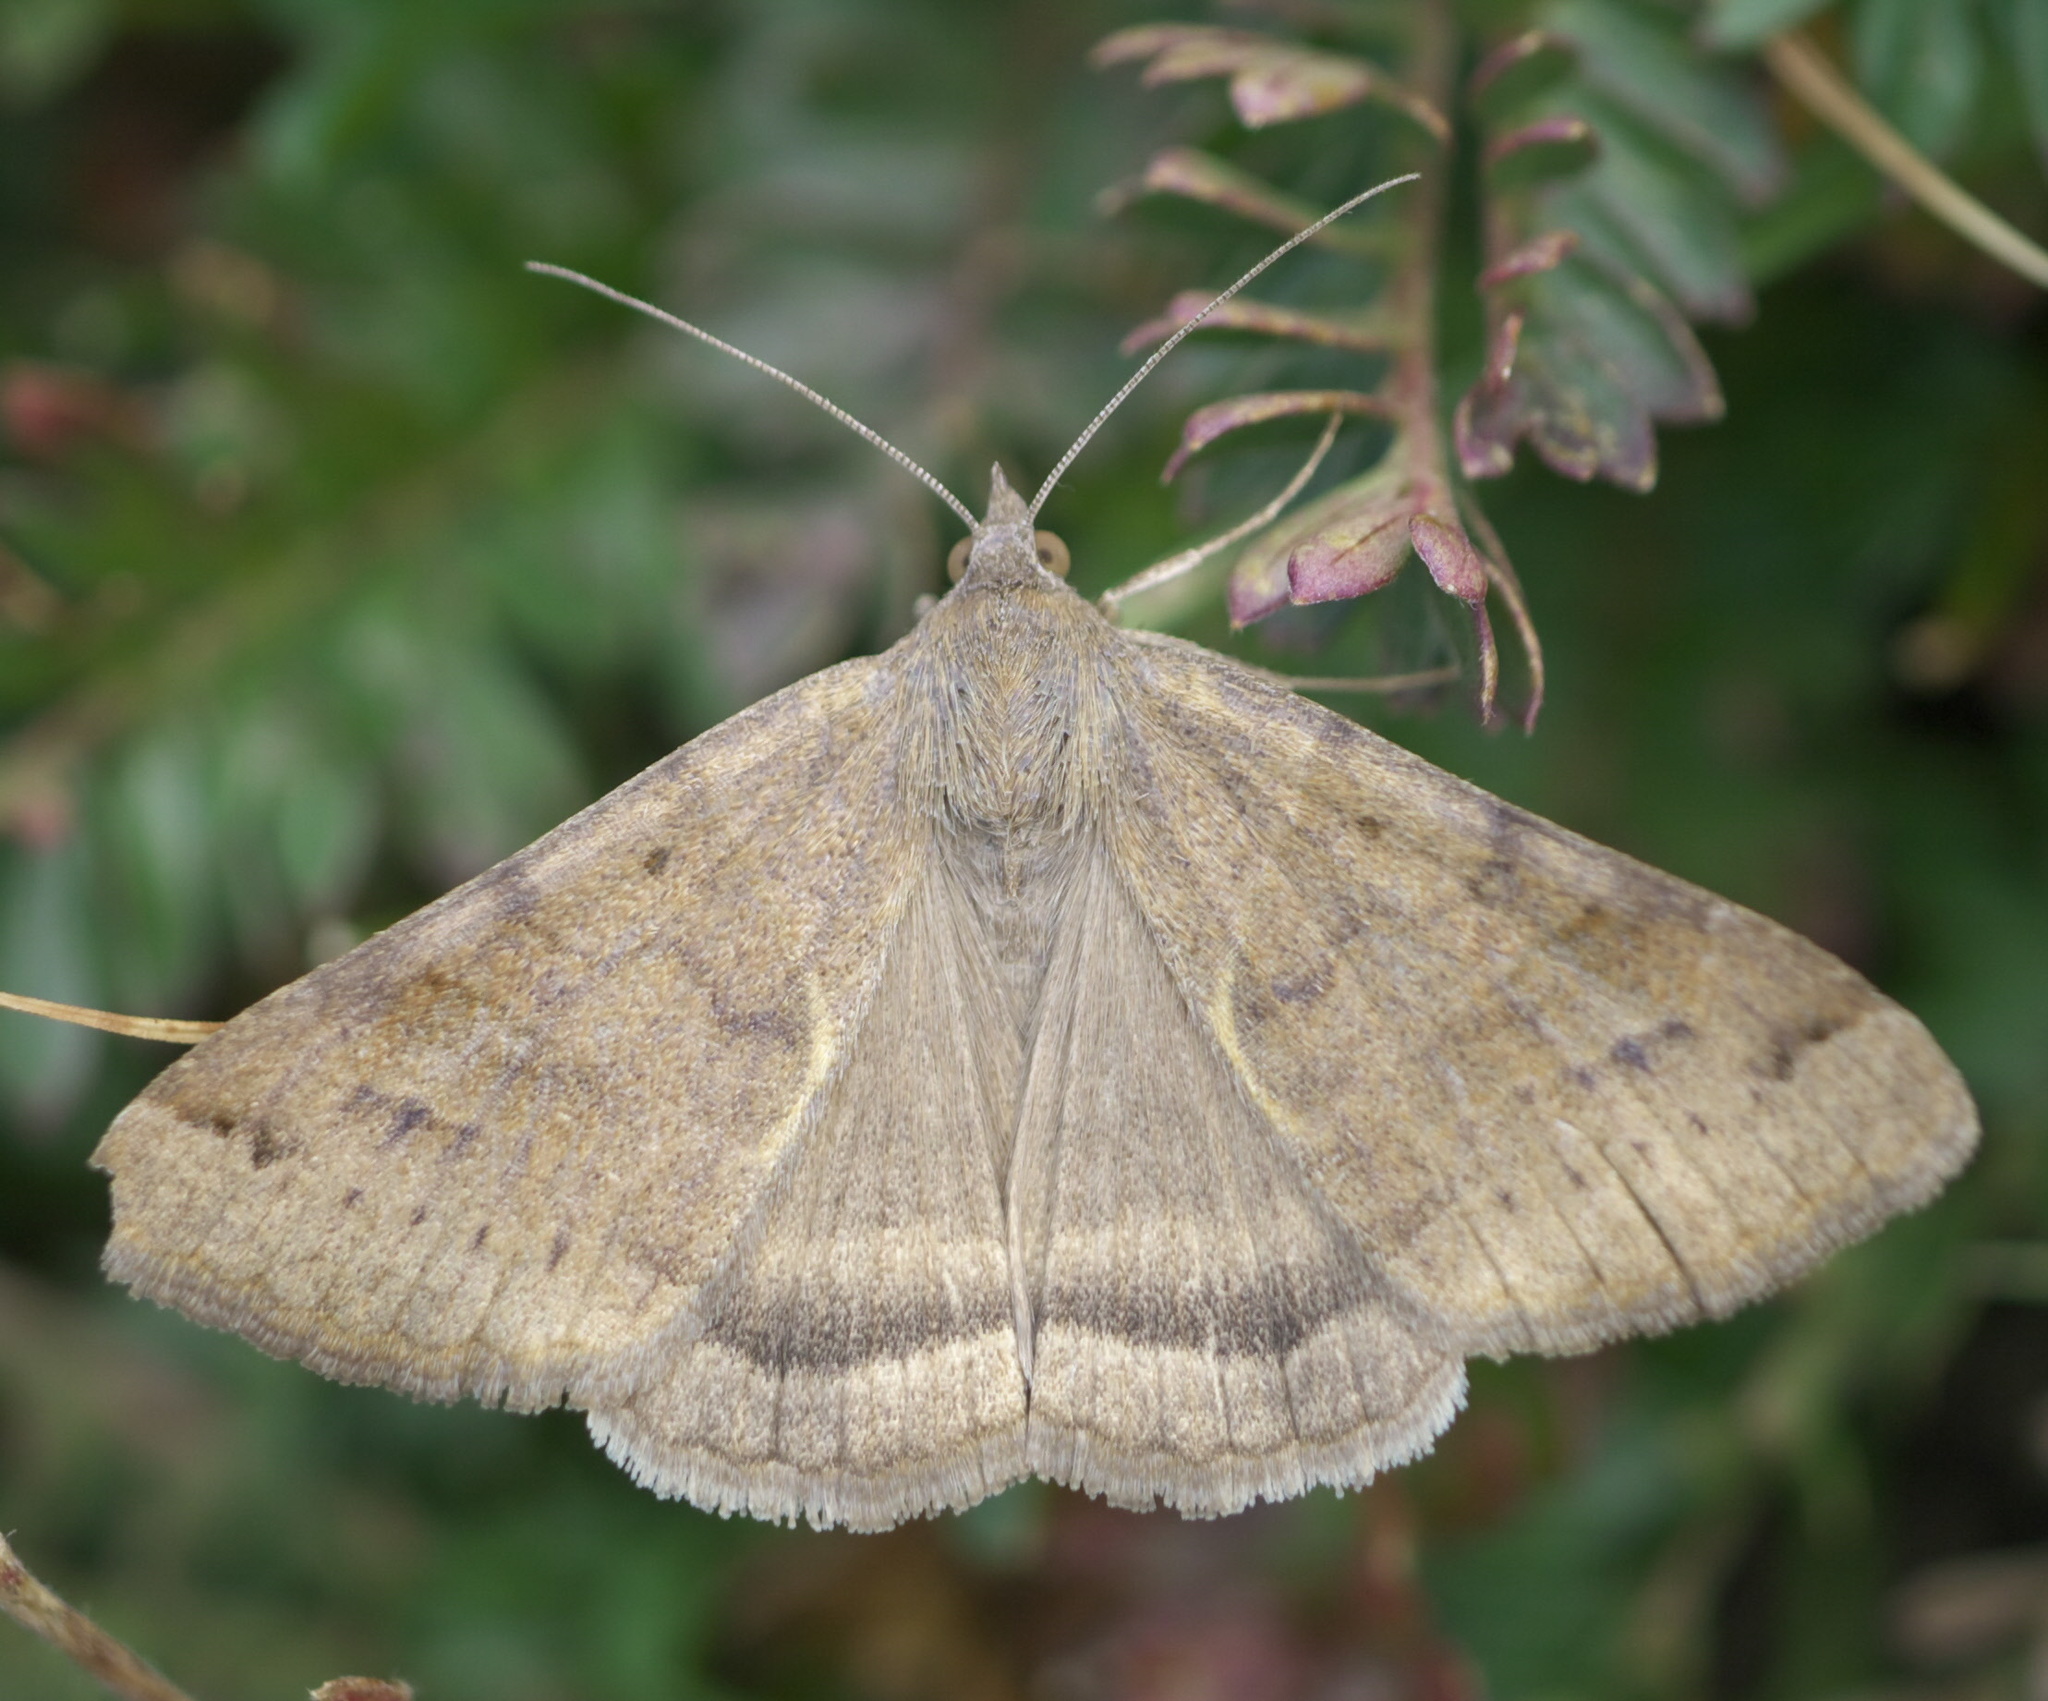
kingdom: Animalia
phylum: Arthropoda
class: Insecta
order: Lepidoptera
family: Erebidae
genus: Caenurgina
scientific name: Caenurgina erechtea
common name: Forage looper moth
